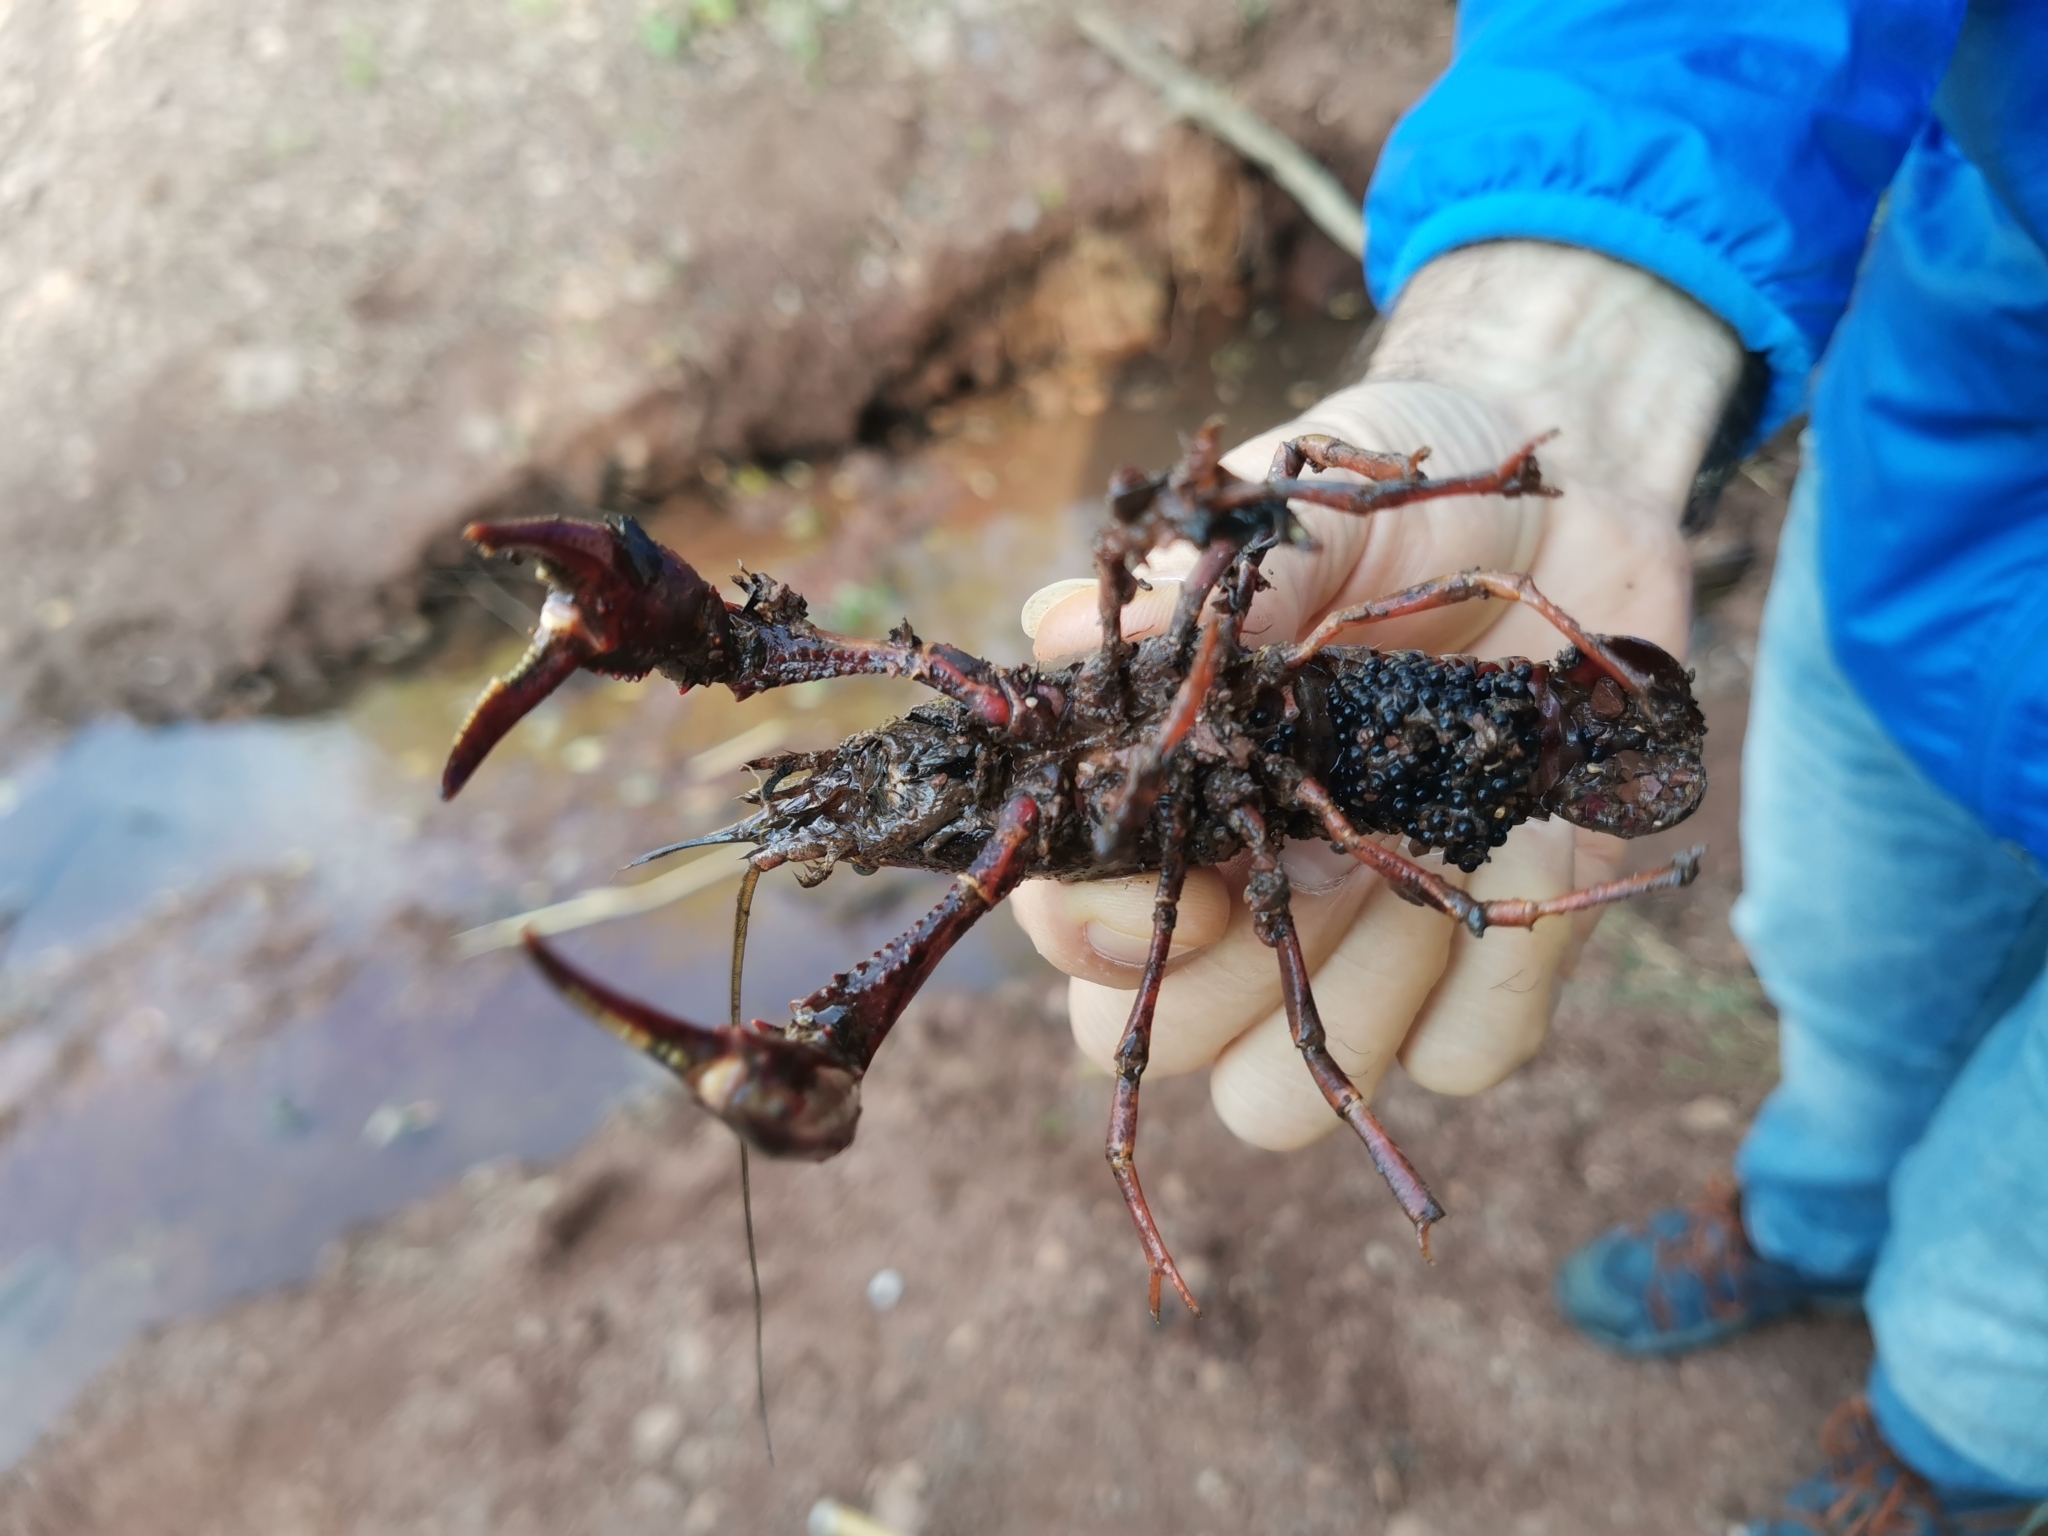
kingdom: Animalia
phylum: Arthropoda
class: Malacostraca
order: Decapoda
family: Cambaridae
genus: Procambarus
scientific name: Procambarus clarkii
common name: Red swamp crayfish
